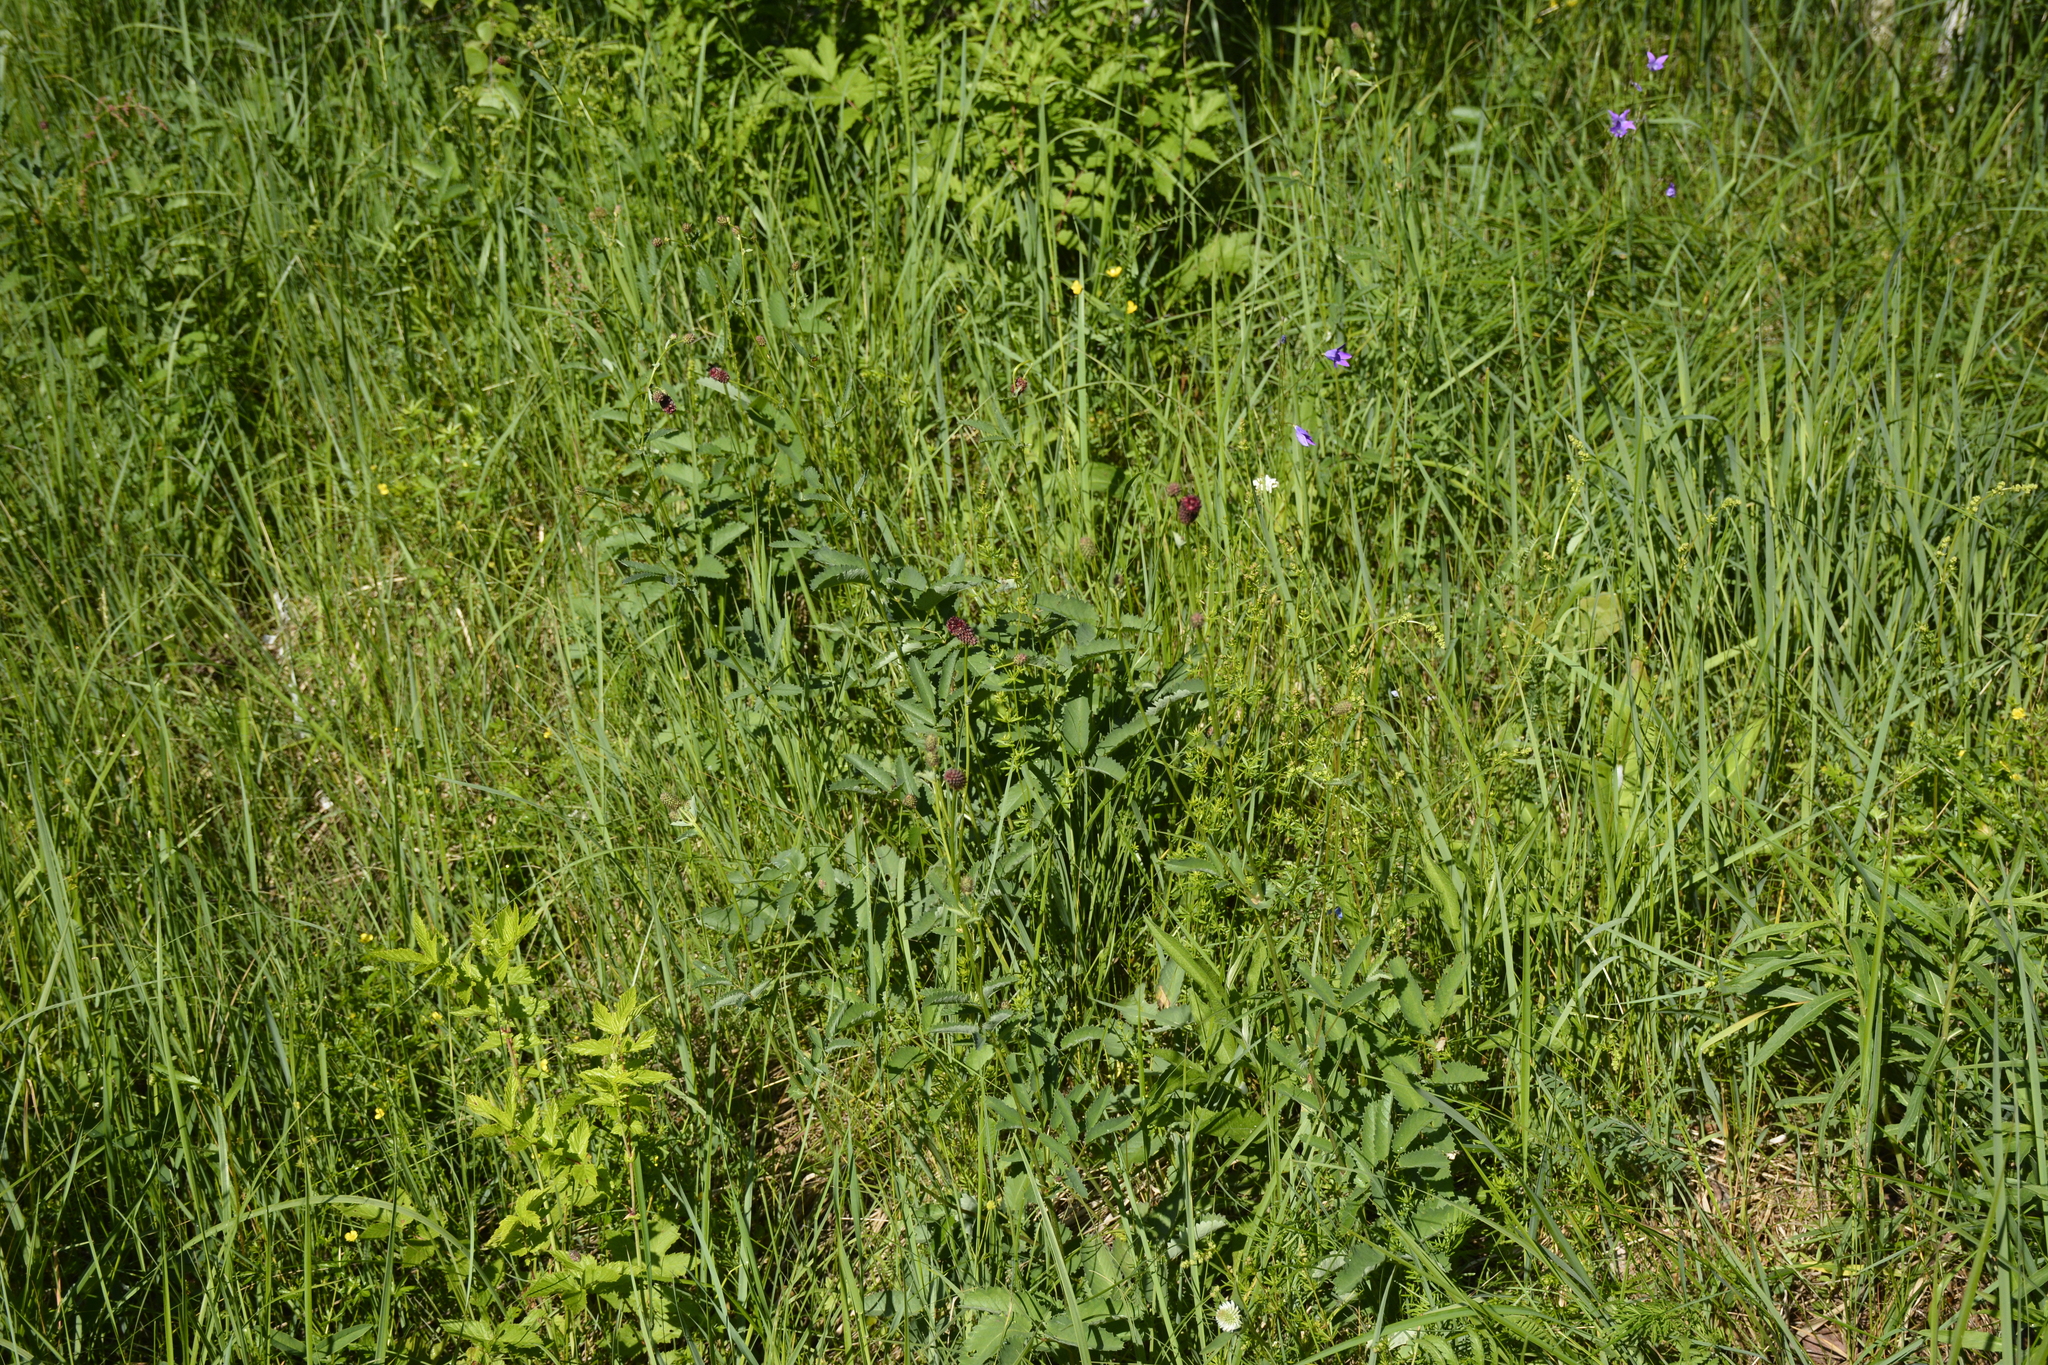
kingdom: Plantae
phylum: Tracheophyta
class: Magnoliopsida
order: Rosales
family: Rosaceae
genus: Sanguisorba
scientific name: Sanguisorba officinalis
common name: Great burnet
